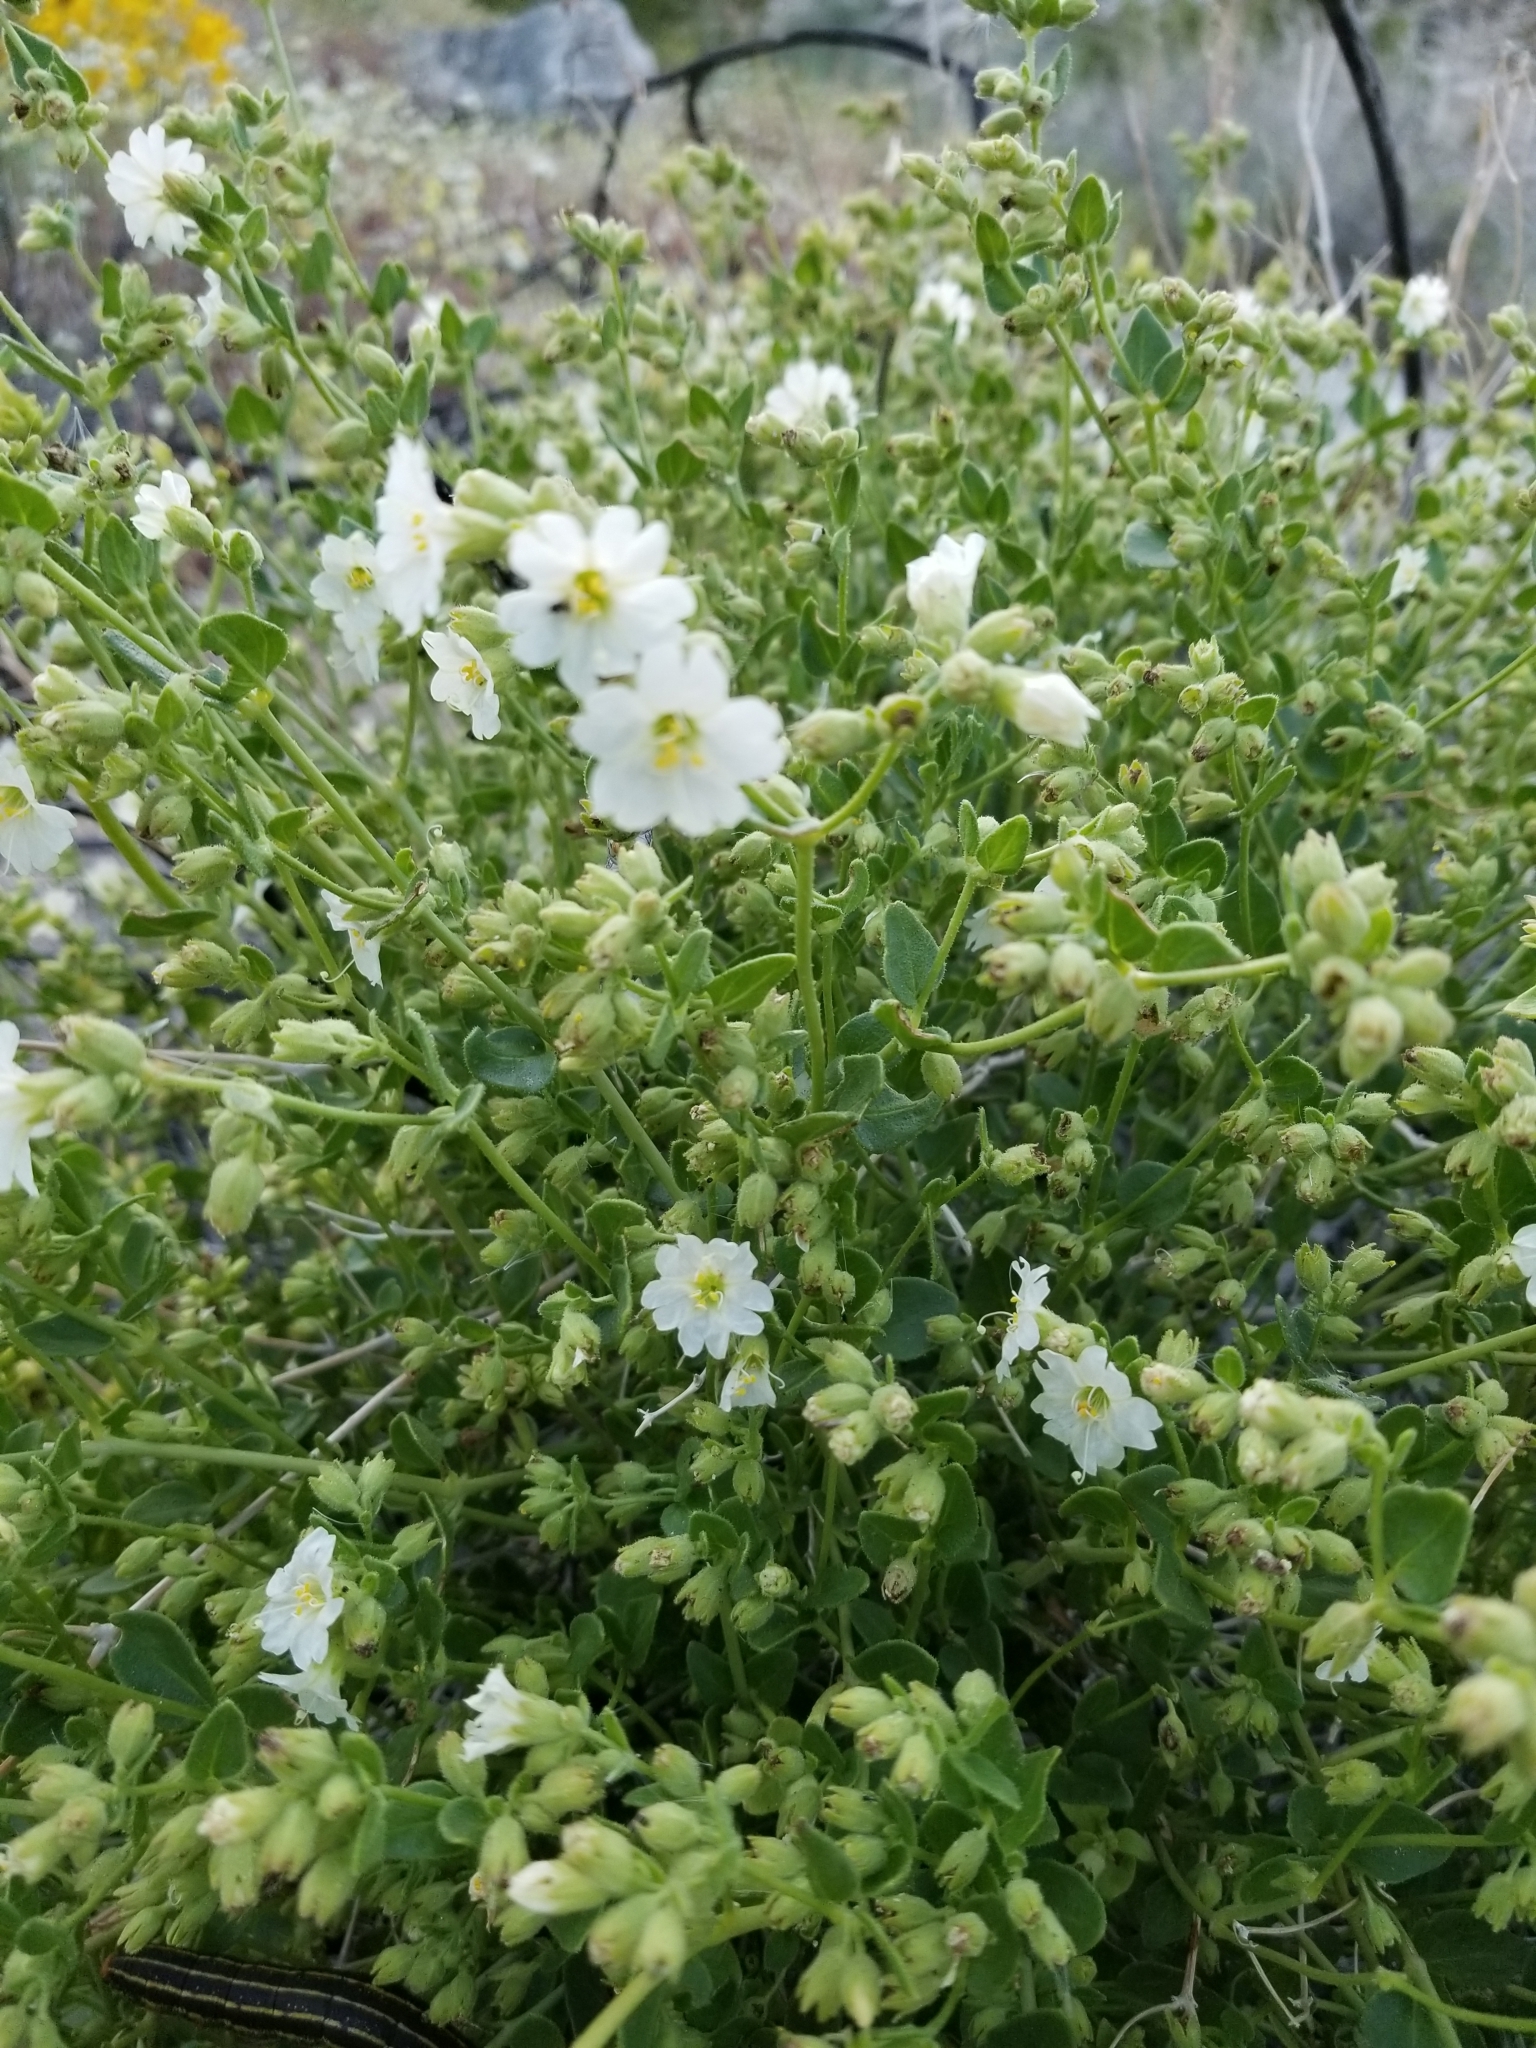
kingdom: Plantae
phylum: Tracheophyta
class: Magnoliopsida
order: Caryophyllales
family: Nyctaginaceae
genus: Mirabilis
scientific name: Mirabilis laevis
